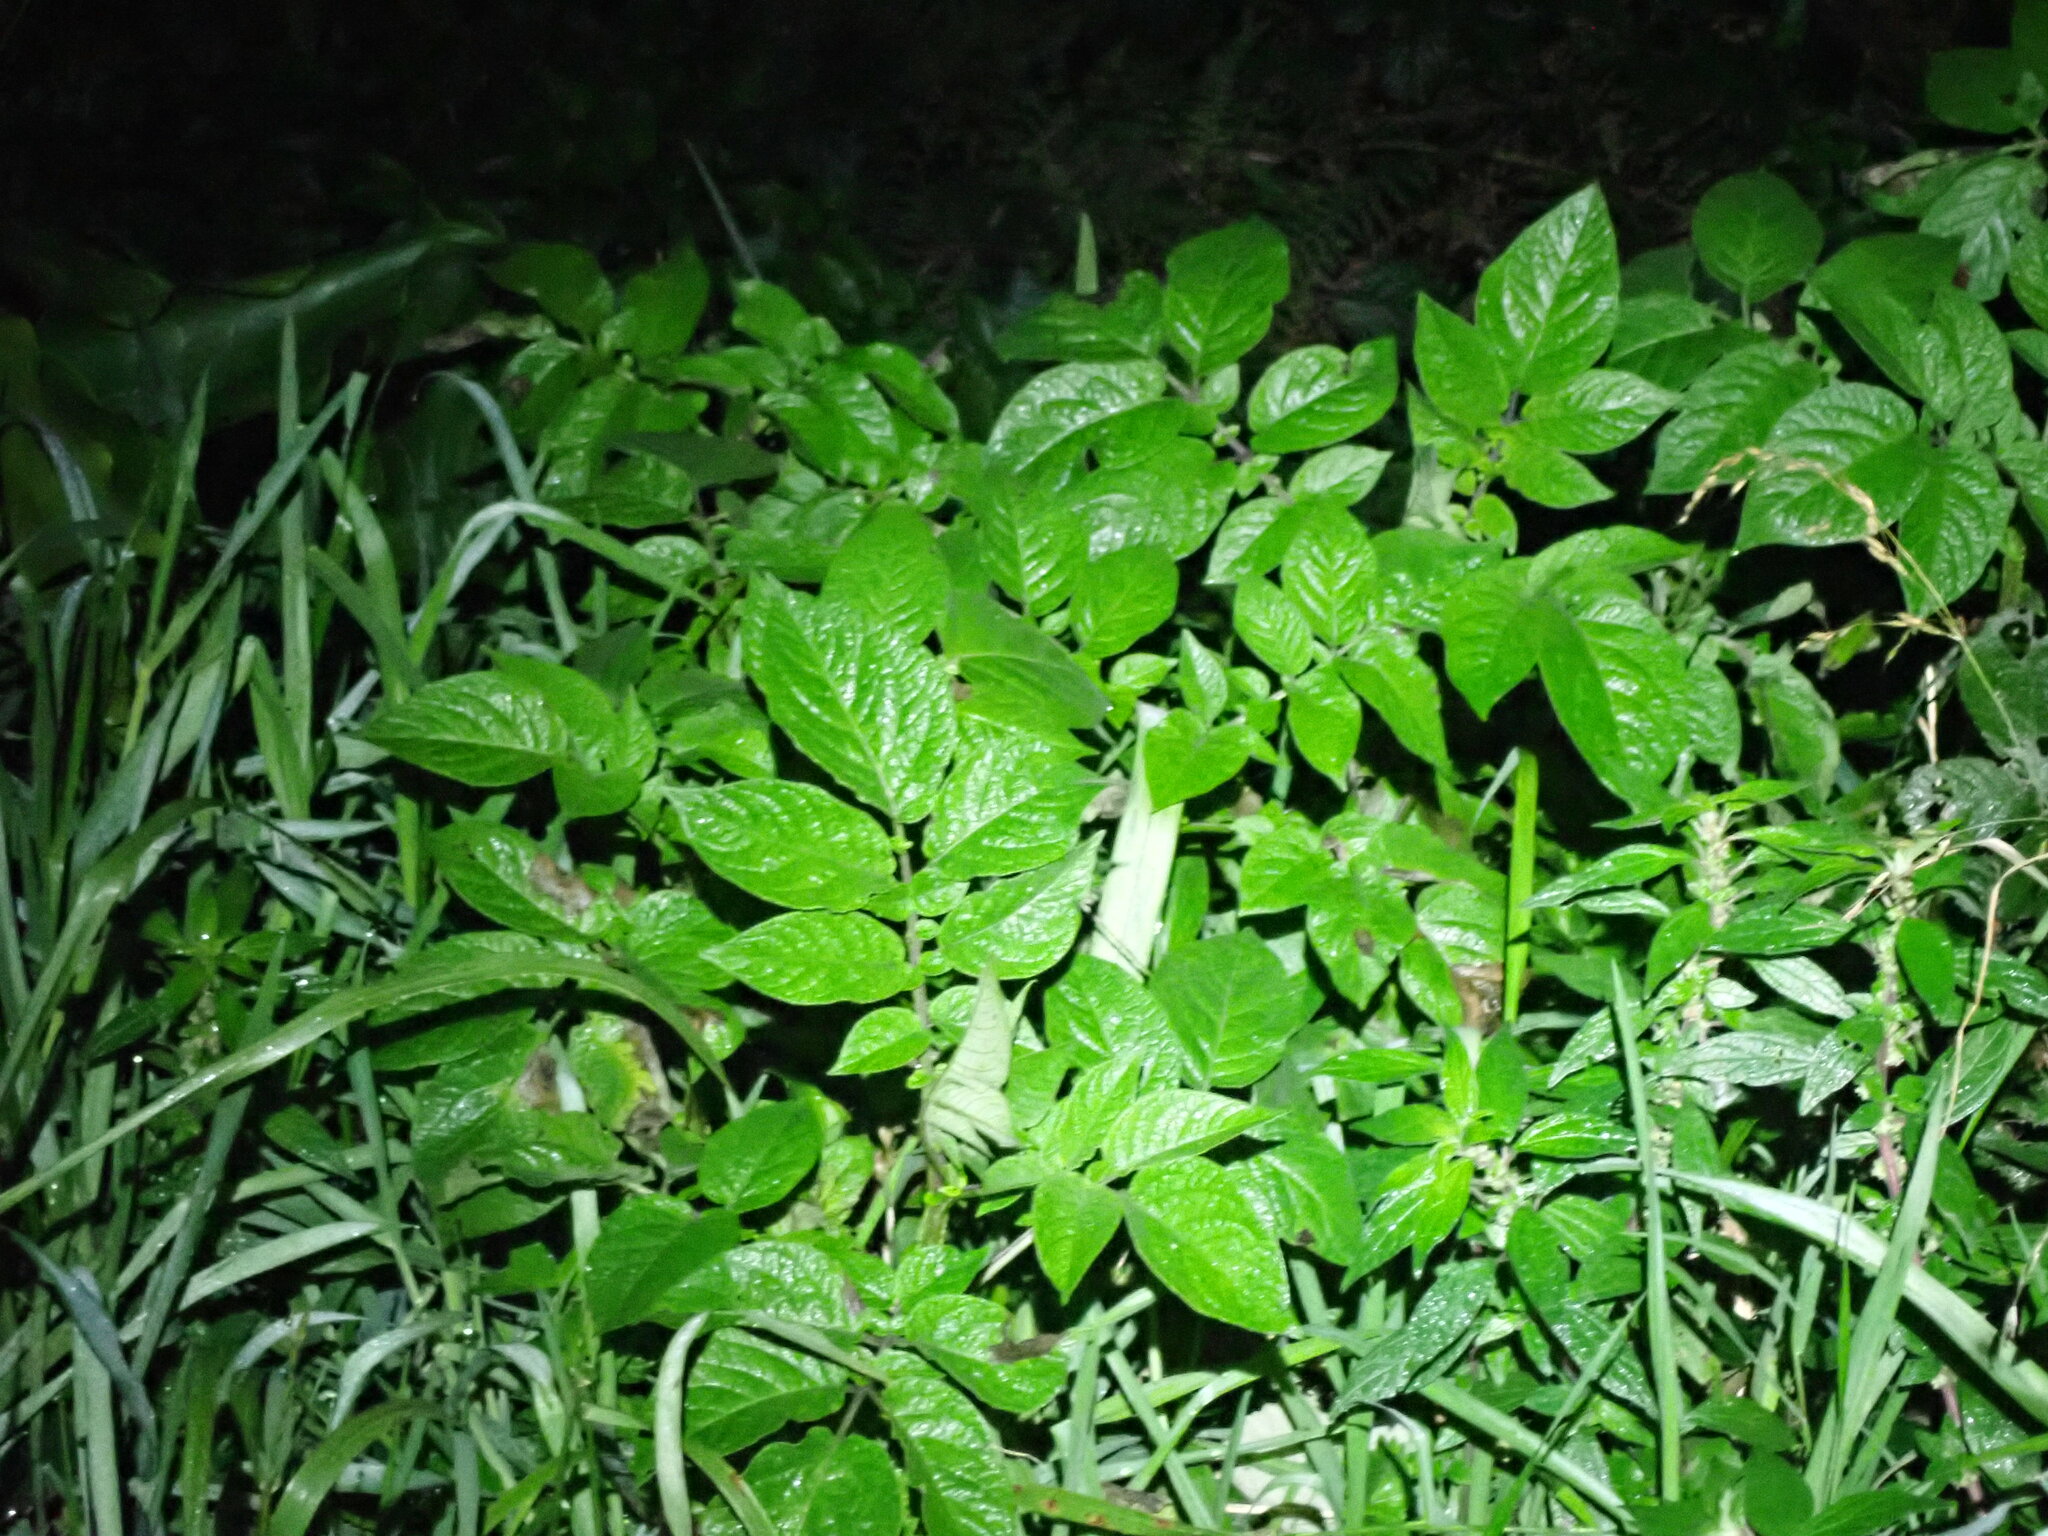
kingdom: Plantae
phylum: Tracheophyta
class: Magnoliopsida
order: Solanales
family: Solanaceae
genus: Solanum
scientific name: Solanum tuberosum
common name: Potato
